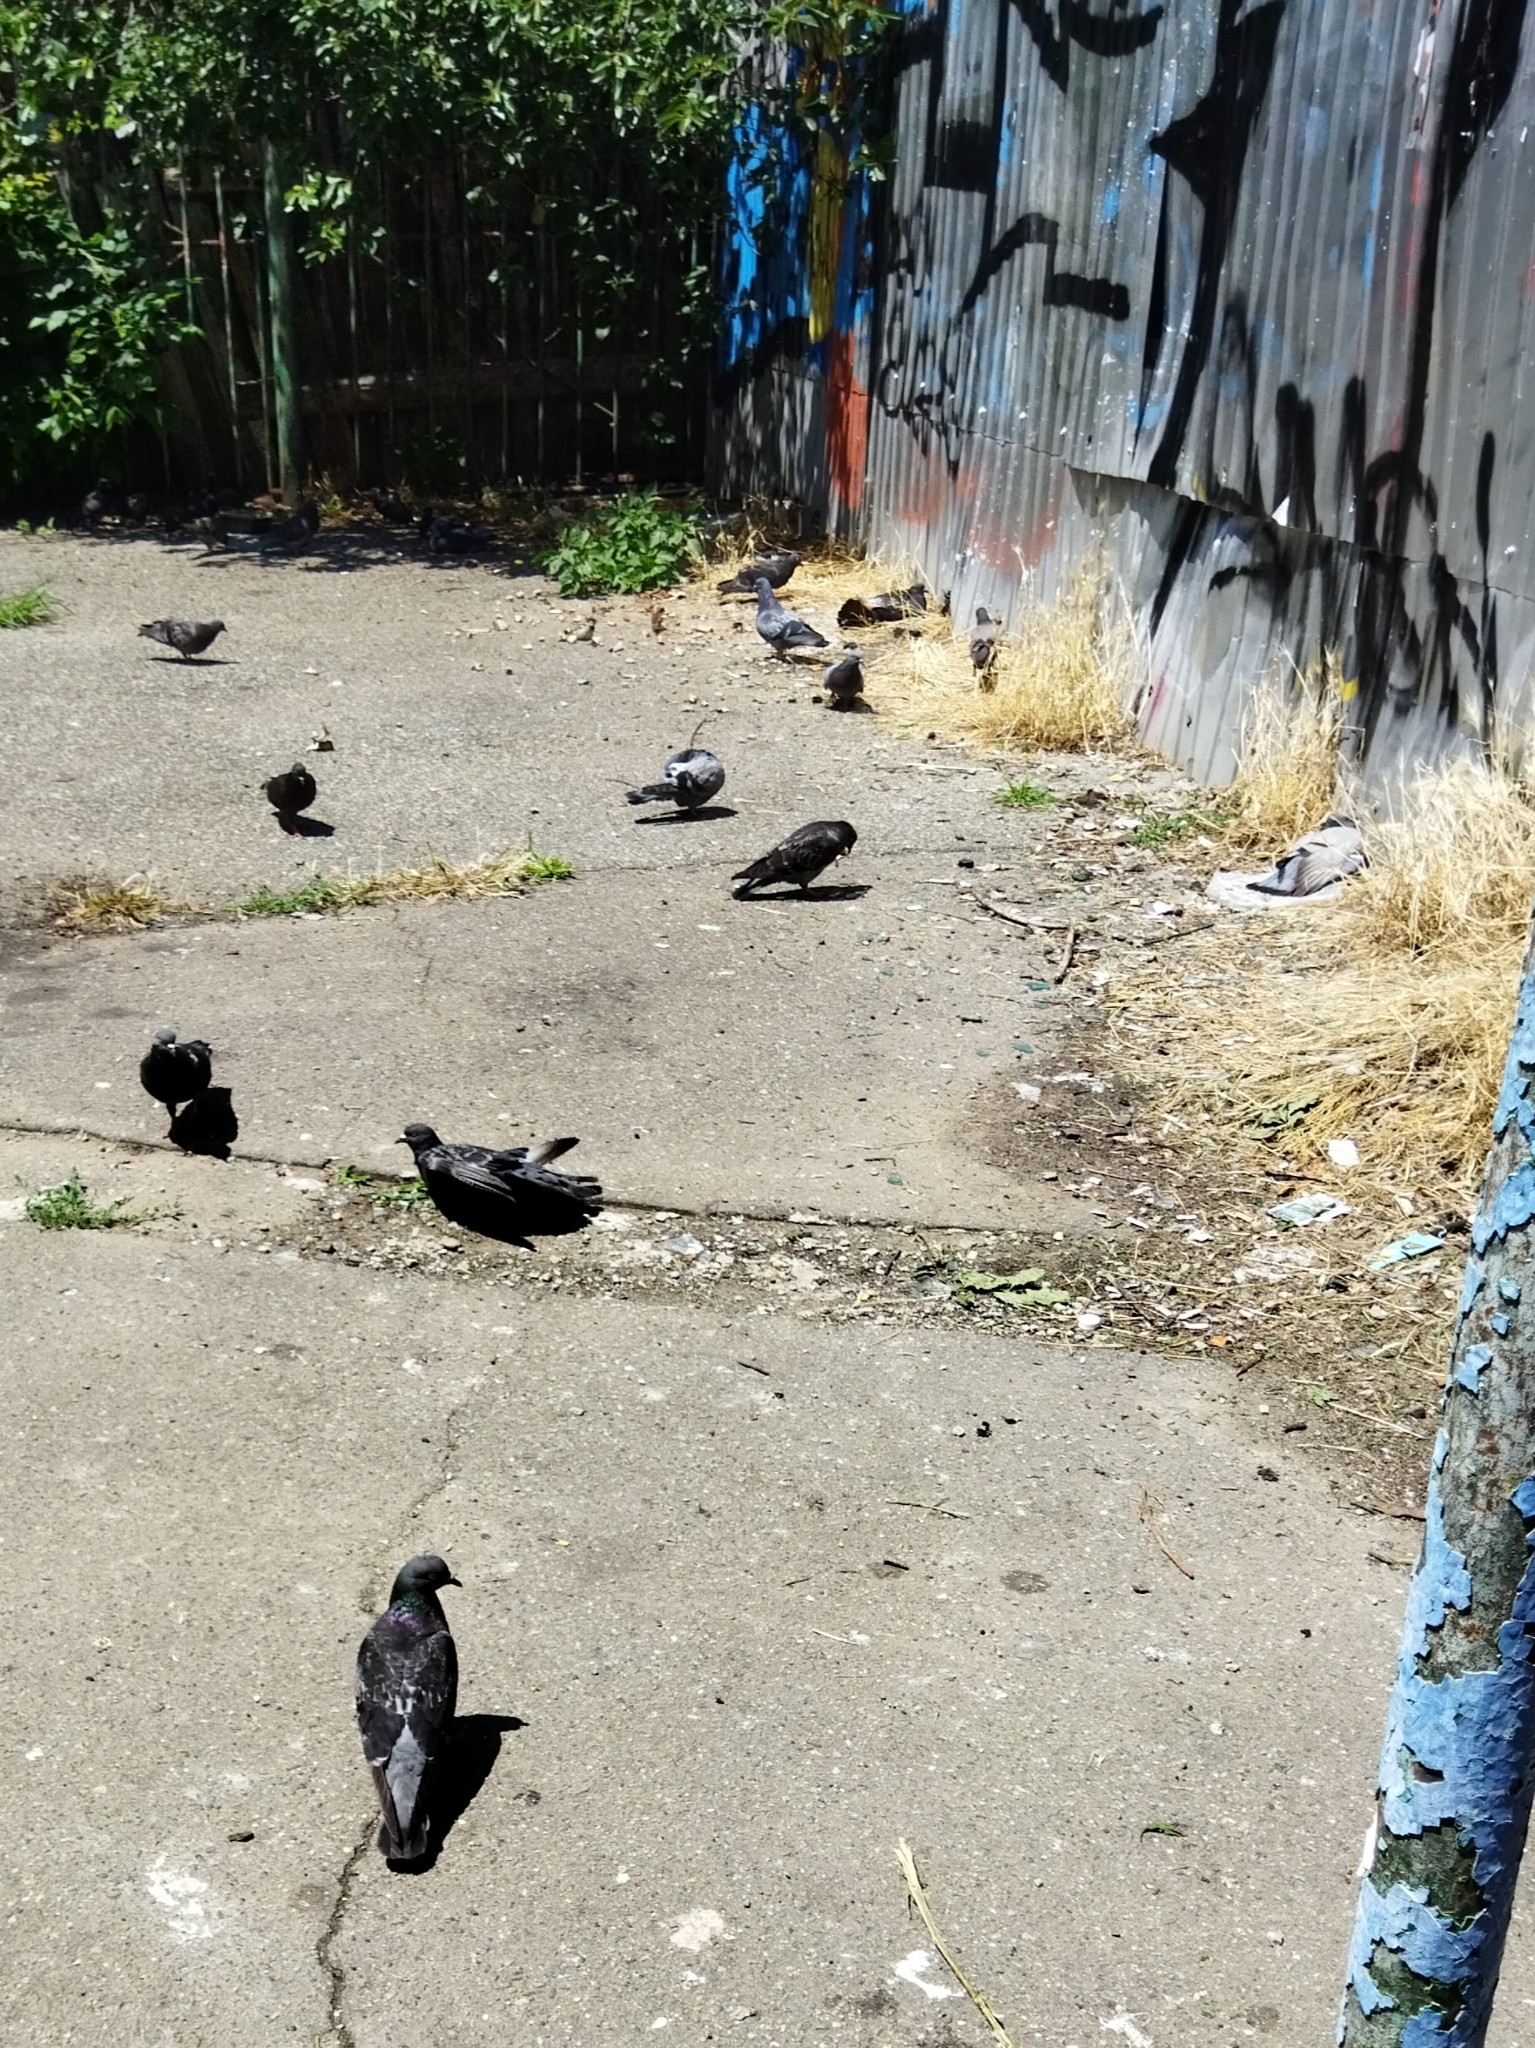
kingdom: Animalia
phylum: Chordata
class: Aves
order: Columbiformes
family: Columbidae
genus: Columba
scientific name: Columba livia
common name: Rock pigeon
